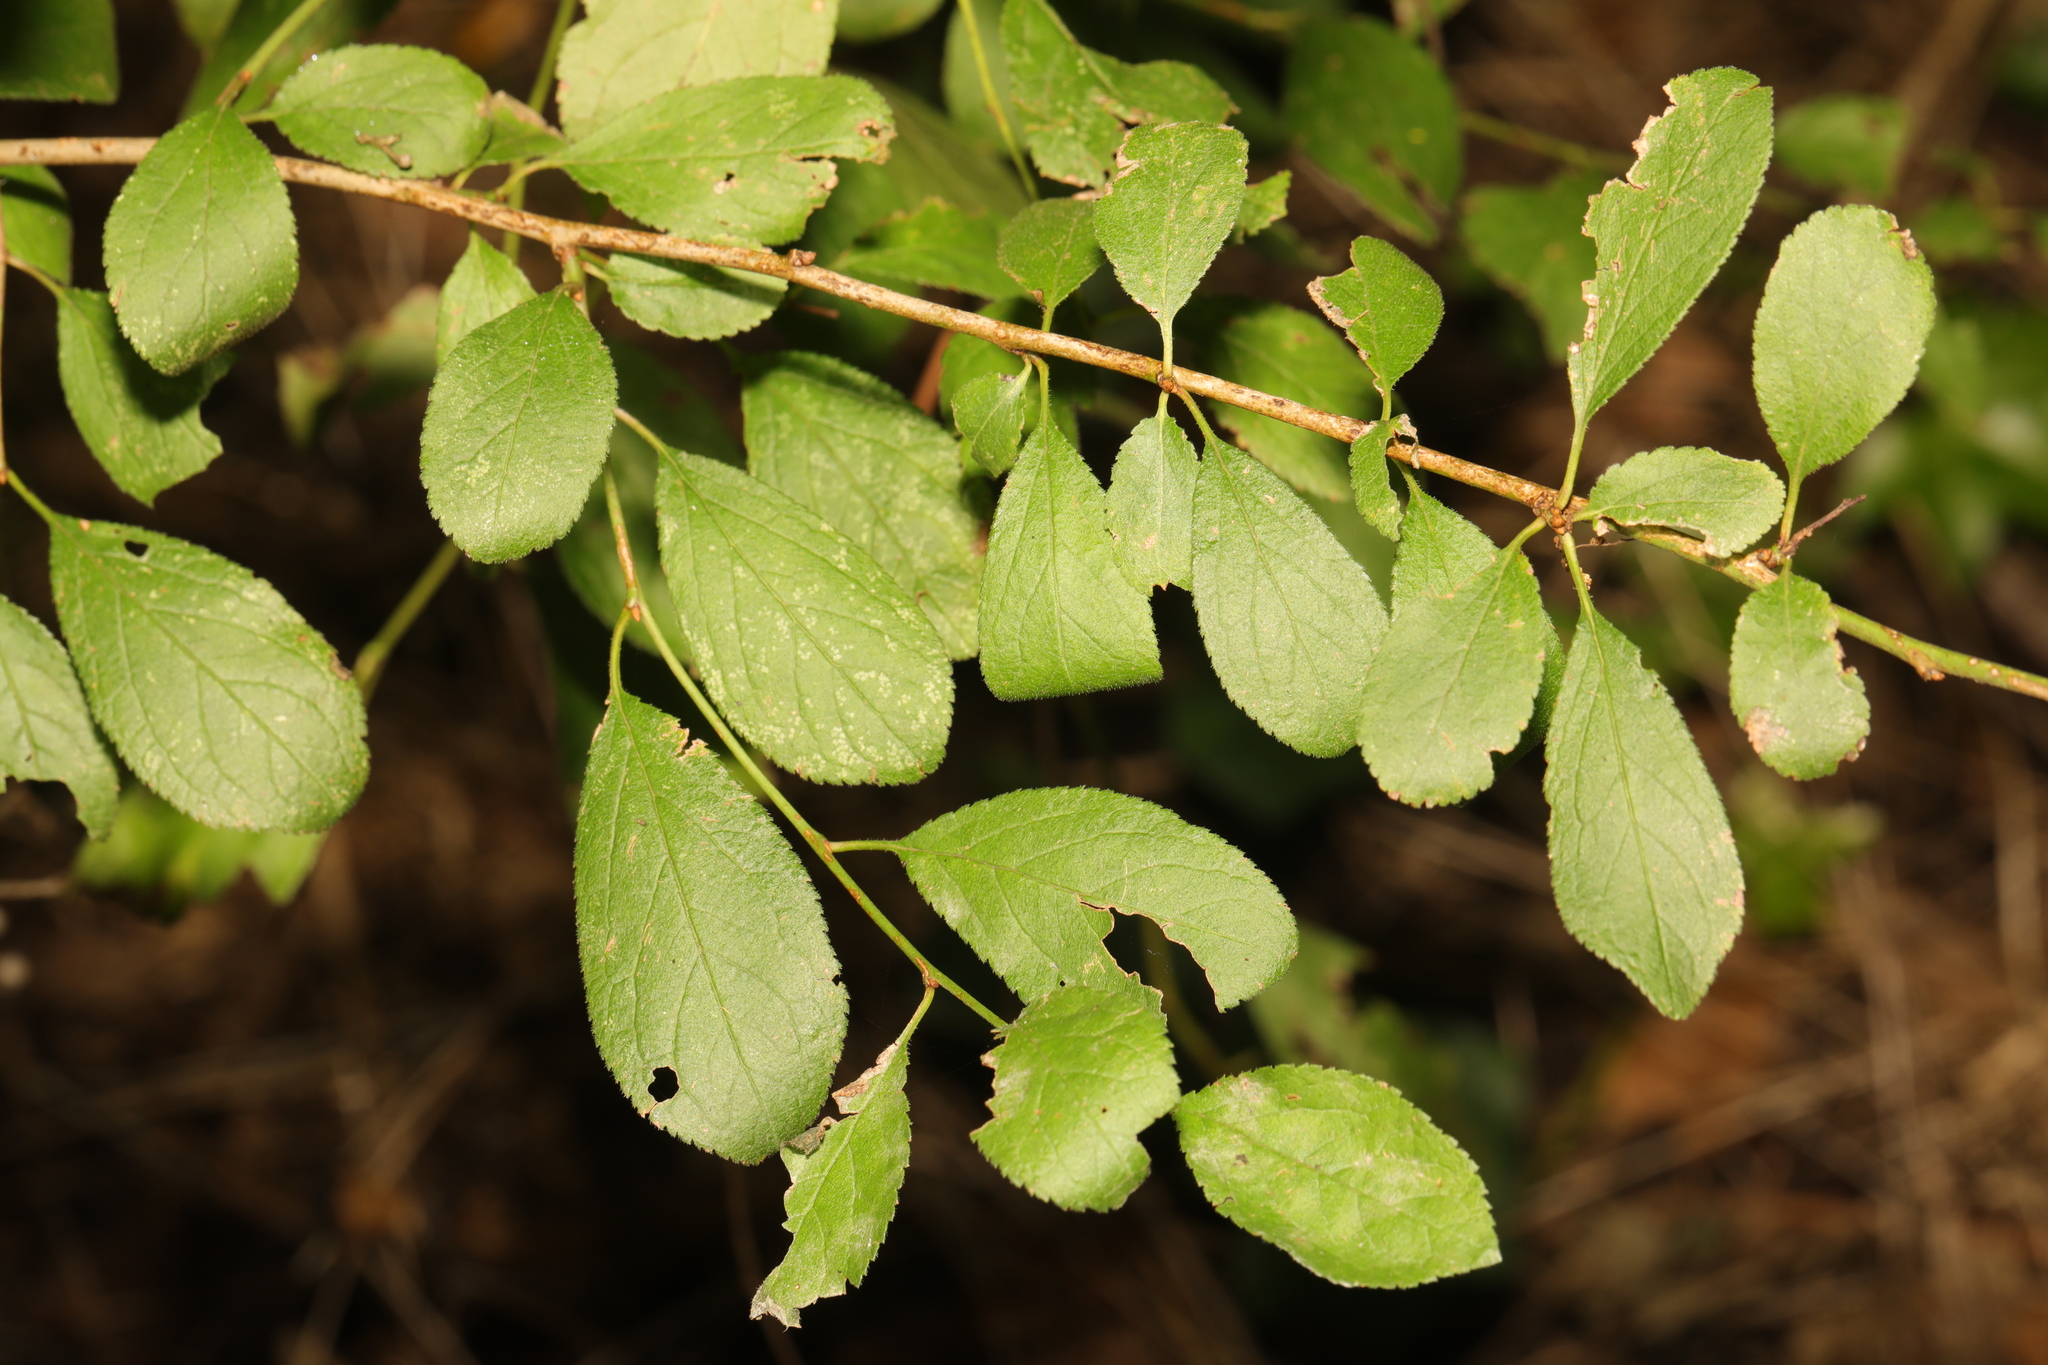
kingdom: Plantae
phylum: Tracheophyta
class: Magnoliopsida
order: Rosales
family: Rosaceae
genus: Prunus
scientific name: Prunus spinosa
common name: Blackthorn
